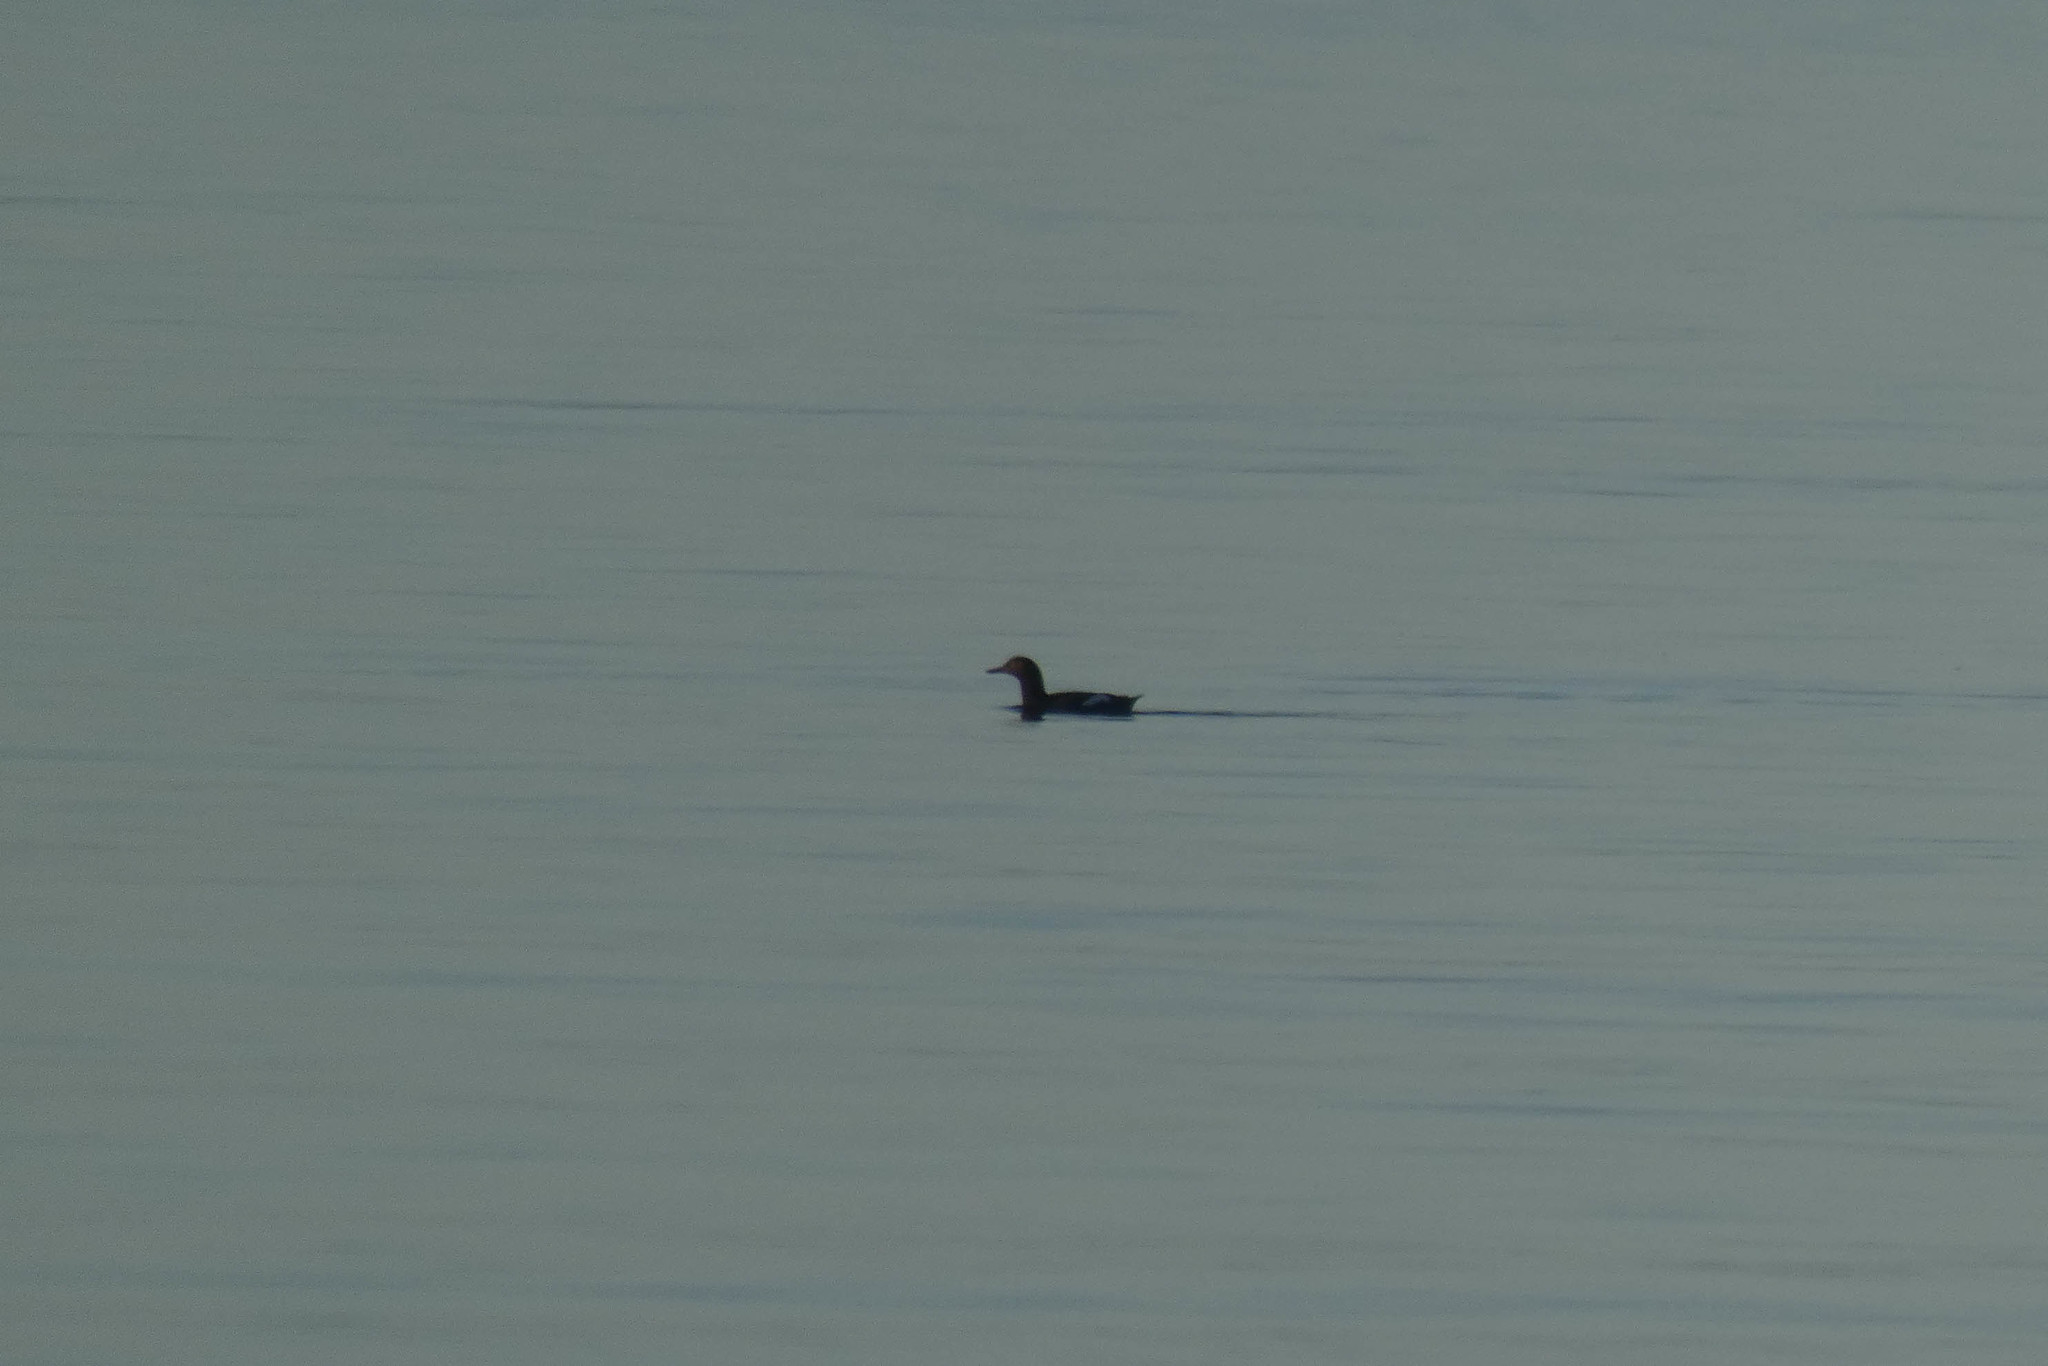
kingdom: Animalia
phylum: Chordata
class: Aves
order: Charadriiformes
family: Alcidae
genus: Cepphus
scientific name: Cepphus columba
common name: Pigeon guillemot
